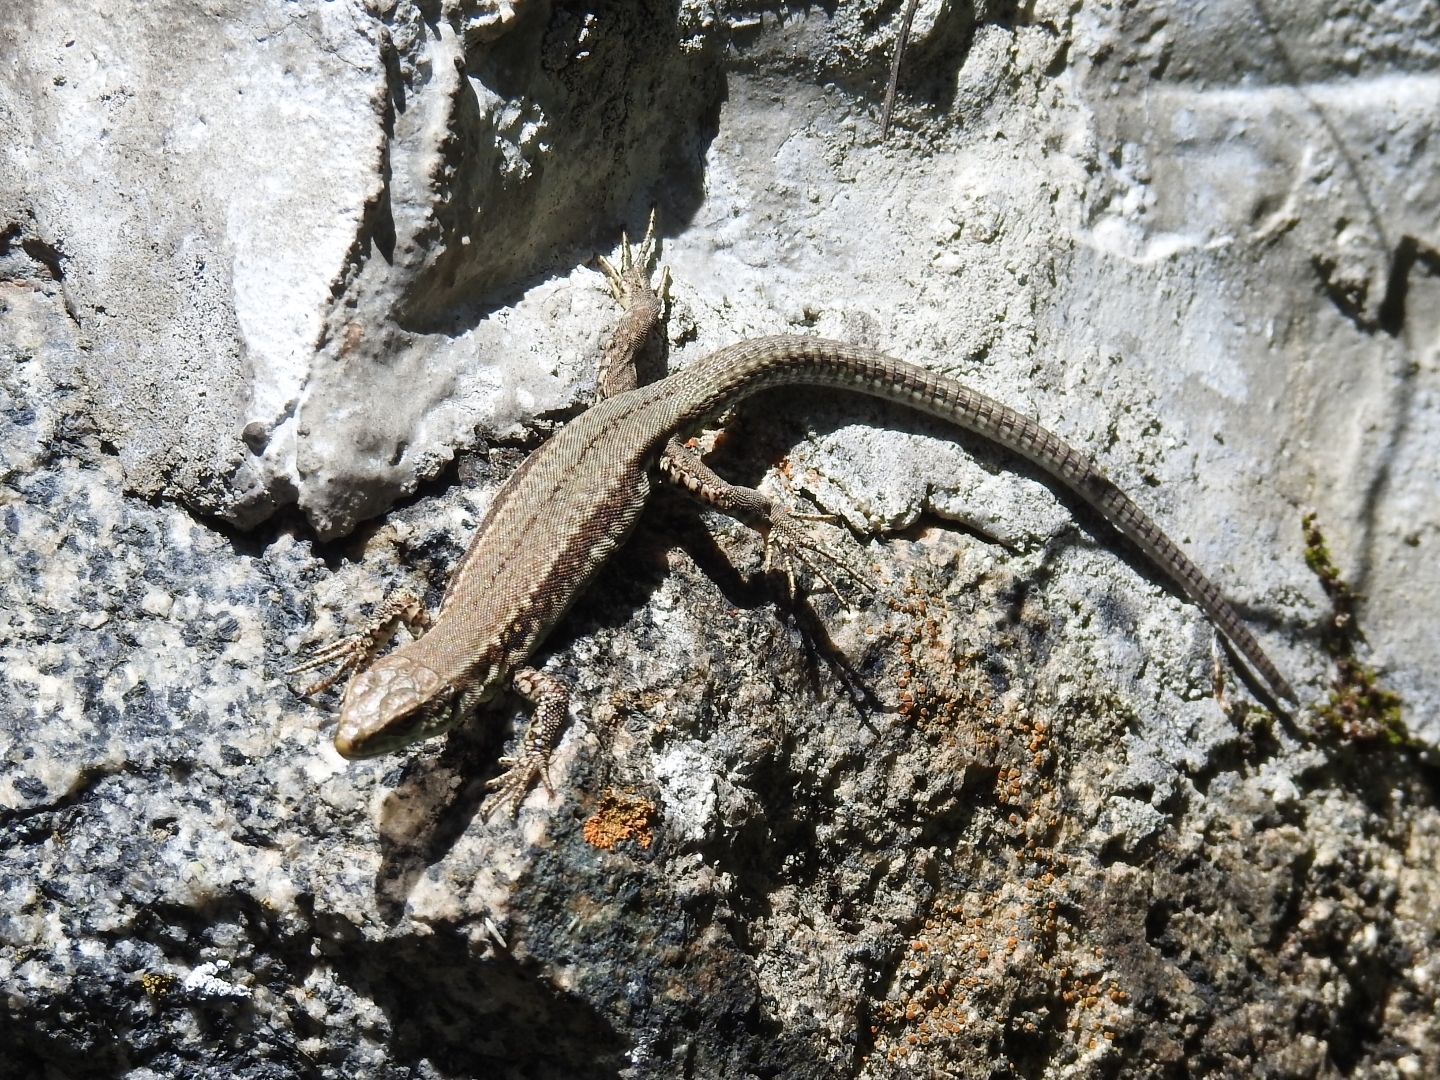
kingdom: Animalia
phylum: Chordata
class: Squamata
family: Lacertidae
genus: Podarcis
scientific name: Podarcis muralis
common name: Common wall lizard
